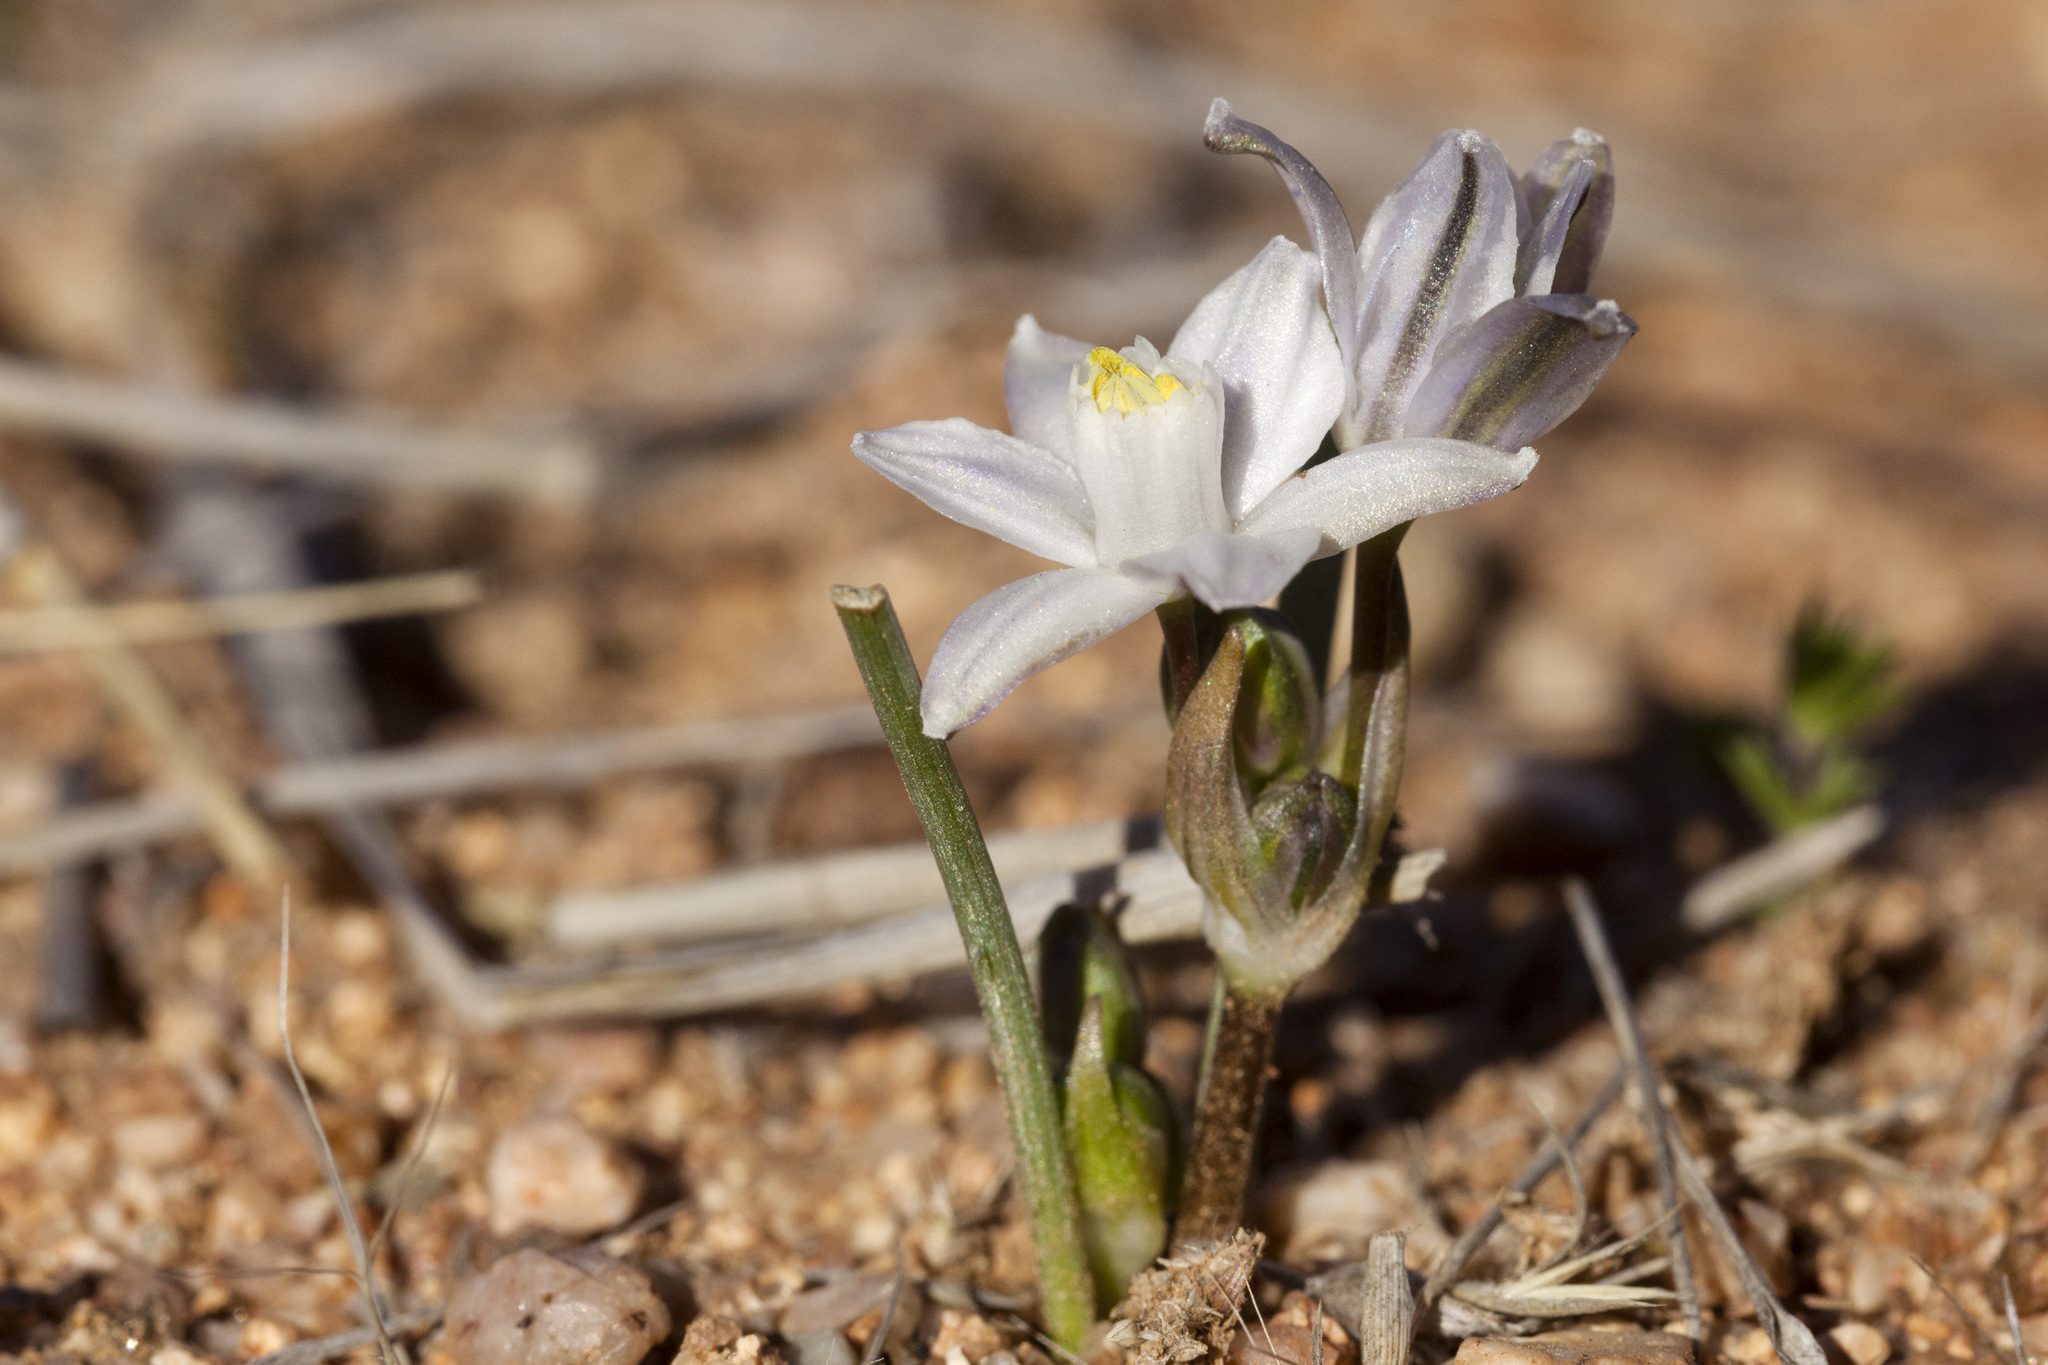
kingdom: Plantae
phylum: Tracheophyta
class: Liliopsida
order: Asparagales
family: Asparagaceae
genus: Muilla
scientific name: Muilla lordsburgana
